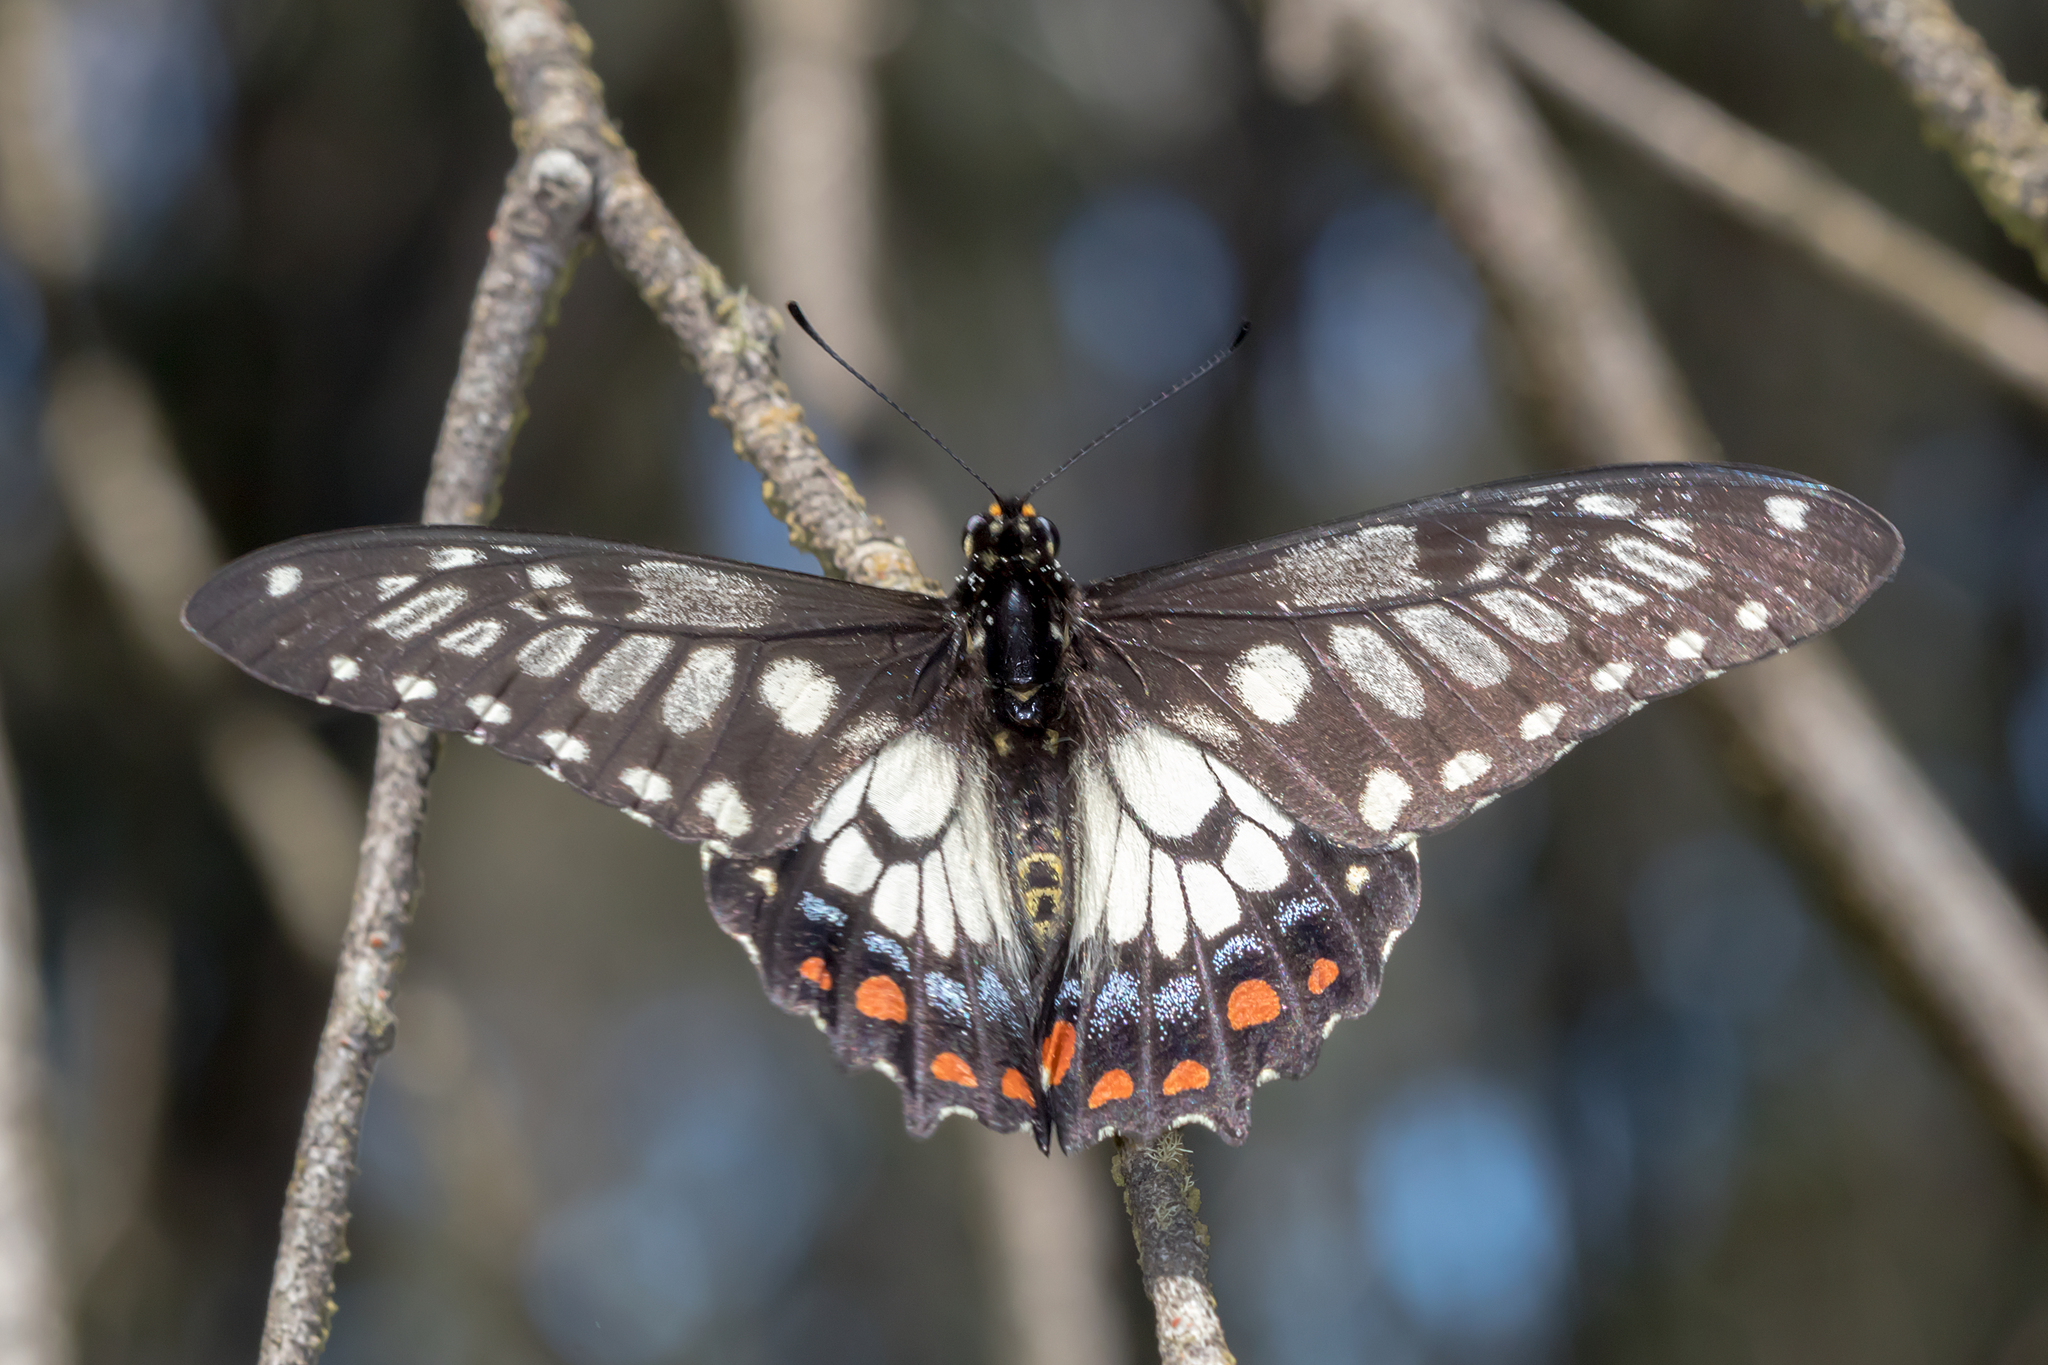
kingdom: Animalia
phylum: Arthropoda
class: Insecta
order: Lepidoptera
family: Papilionidae
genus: Papilio
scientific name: Papilio anactus
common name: Dingy swallowtail
